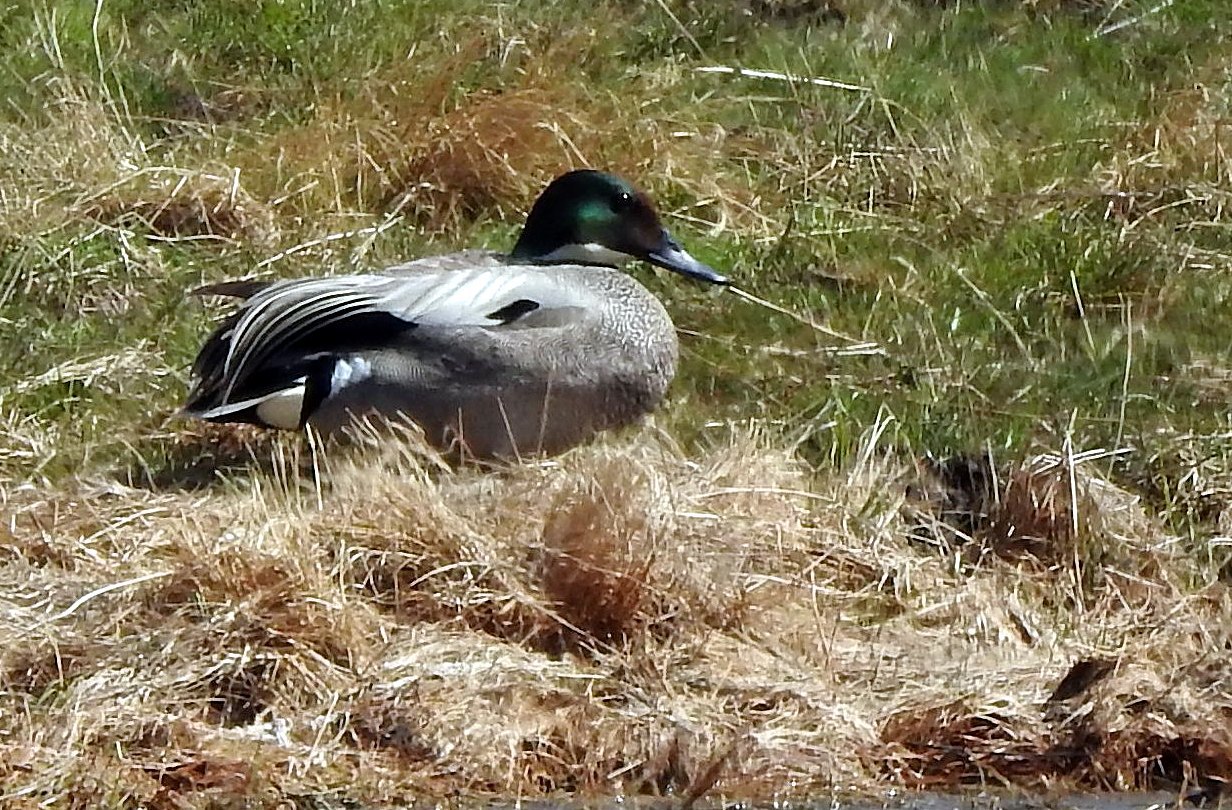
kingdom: Animalia
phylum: Chordata
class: Aves
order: Anseriformes
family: Anatidae
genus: Mareca
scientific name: Mareca falcata
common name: Falcated duck
